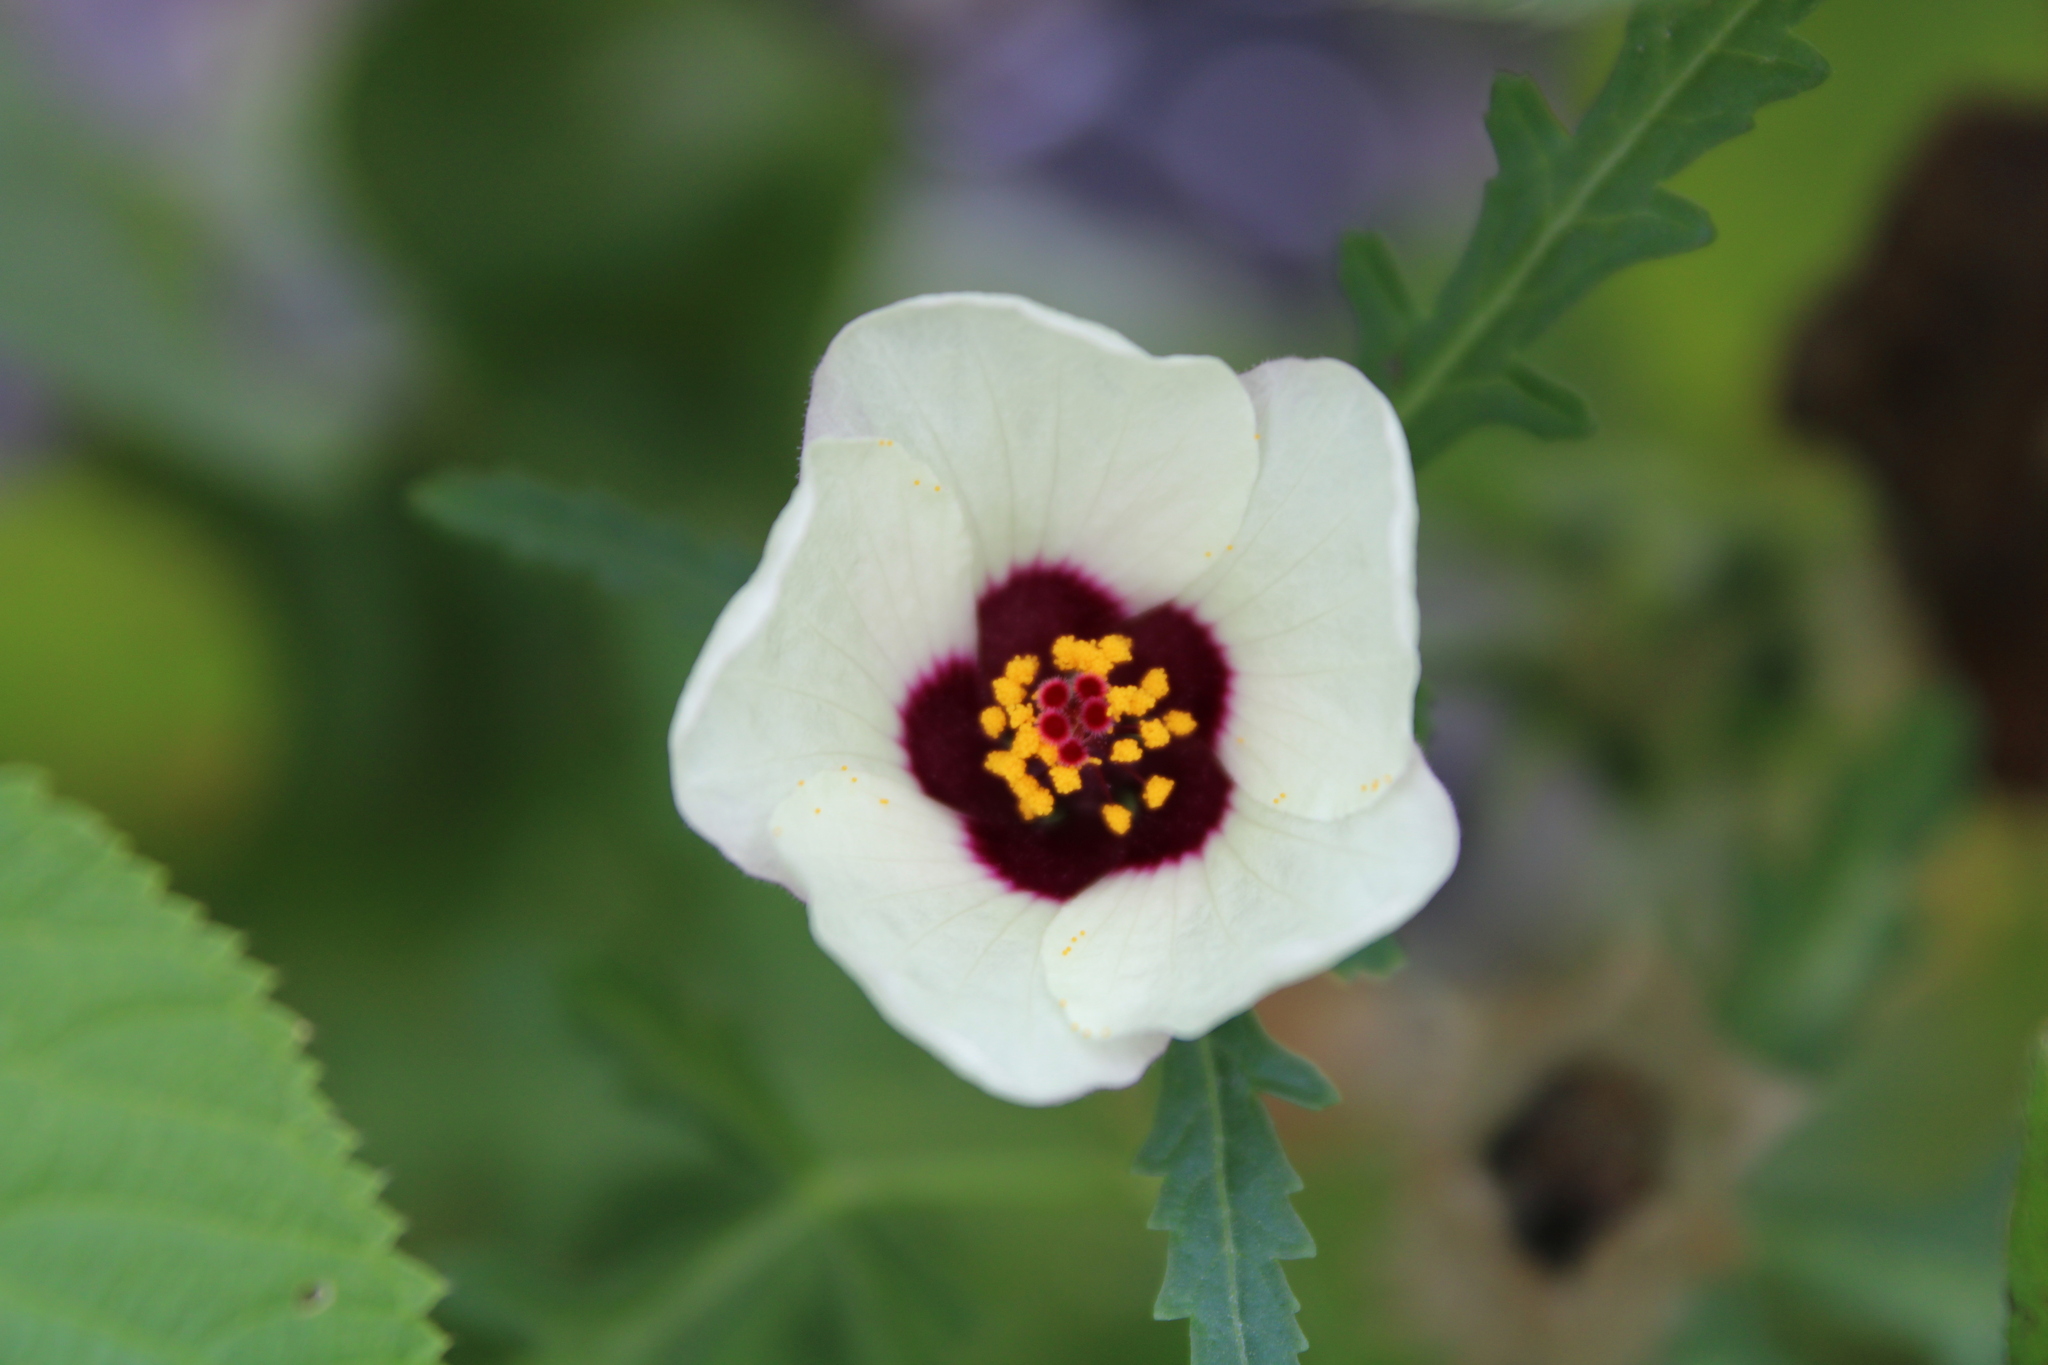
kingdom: Plantae
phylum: Tracheophyta
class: Magnoliopsida
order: Malvales
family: Malvaceae
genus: Hibiscus
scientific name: Hibiscus trionum
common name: Bladder ketmia
